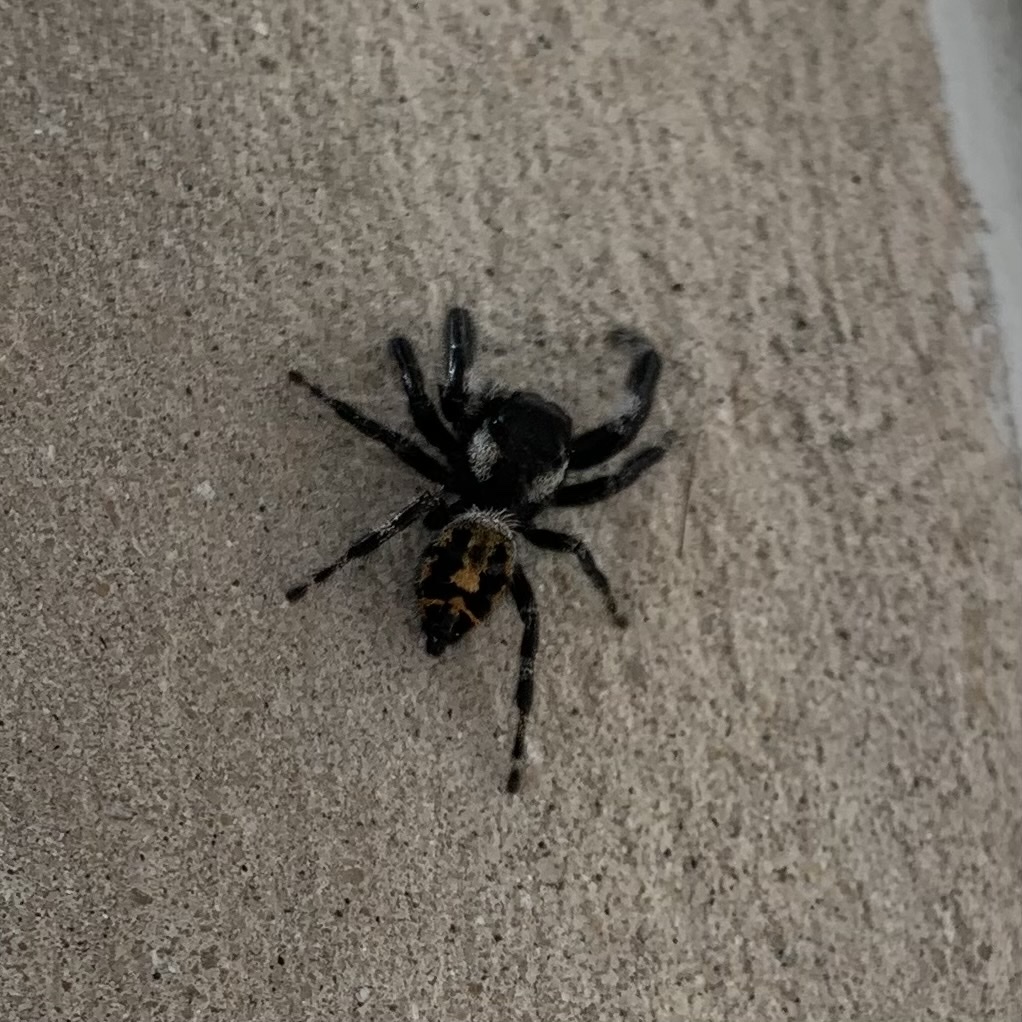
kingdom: Animalia
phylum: Arthropoda
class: Arachnida
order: Araneae
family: Salticidae
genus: Phidippus
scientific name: Phidippus audax
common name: Bold jumper
